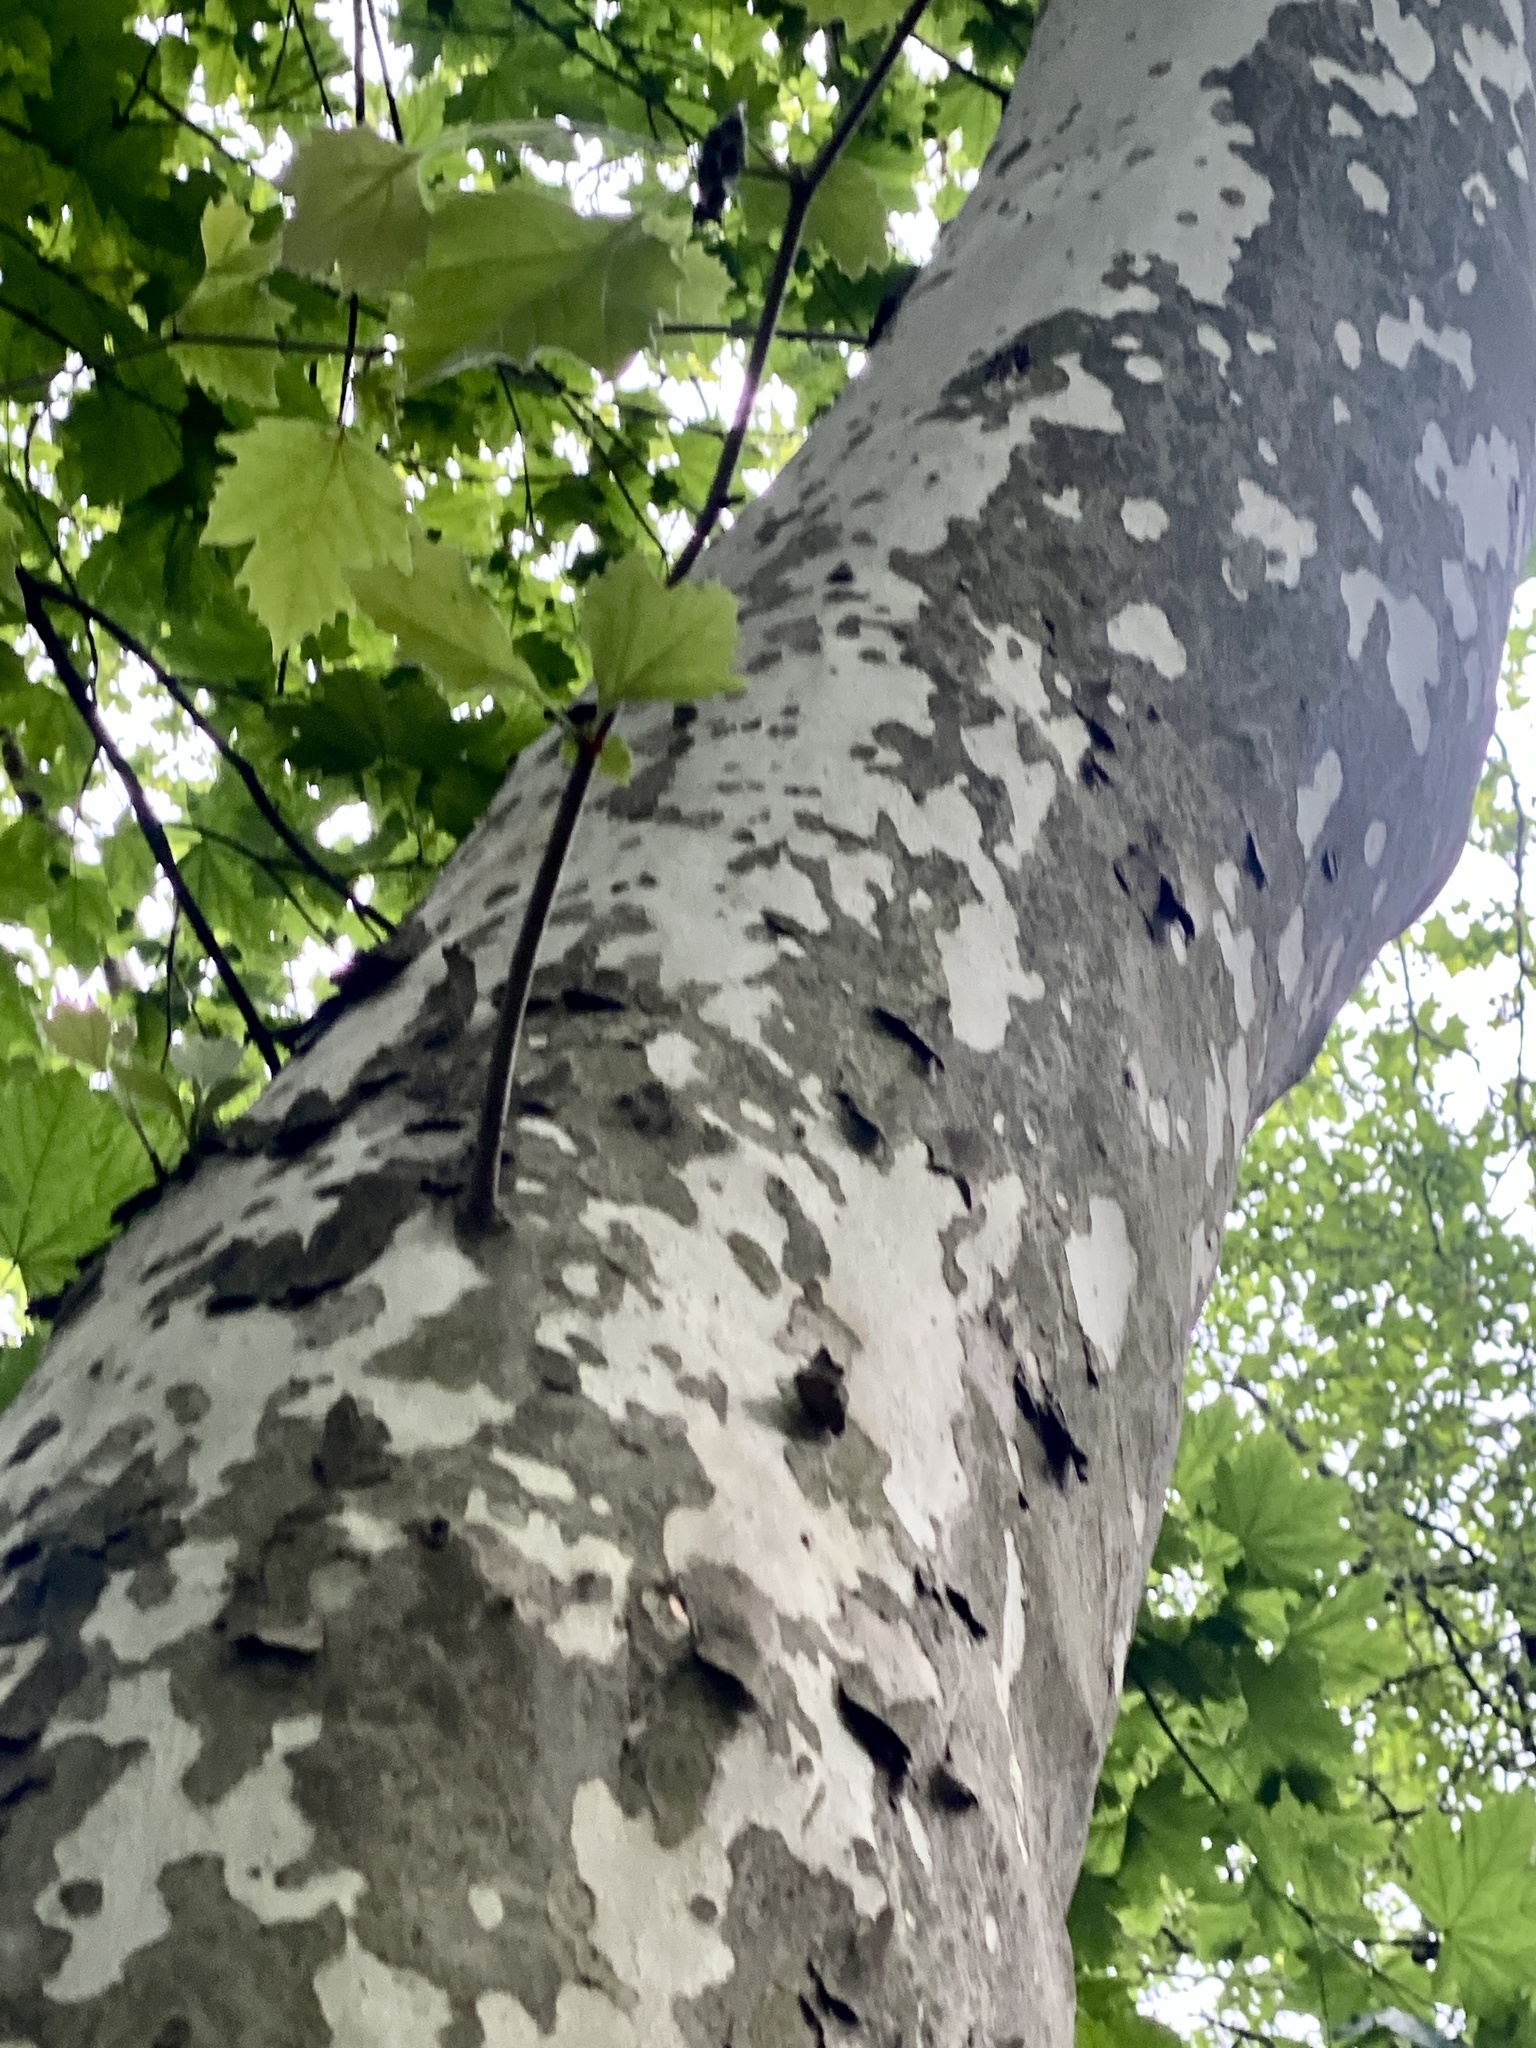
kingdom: Plantae
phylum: Tracheophyta
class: Magnoliopsida
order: Proteales
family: Platanaceae
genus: Platanus
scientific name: Platanus occidentalis
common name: American sycamore
